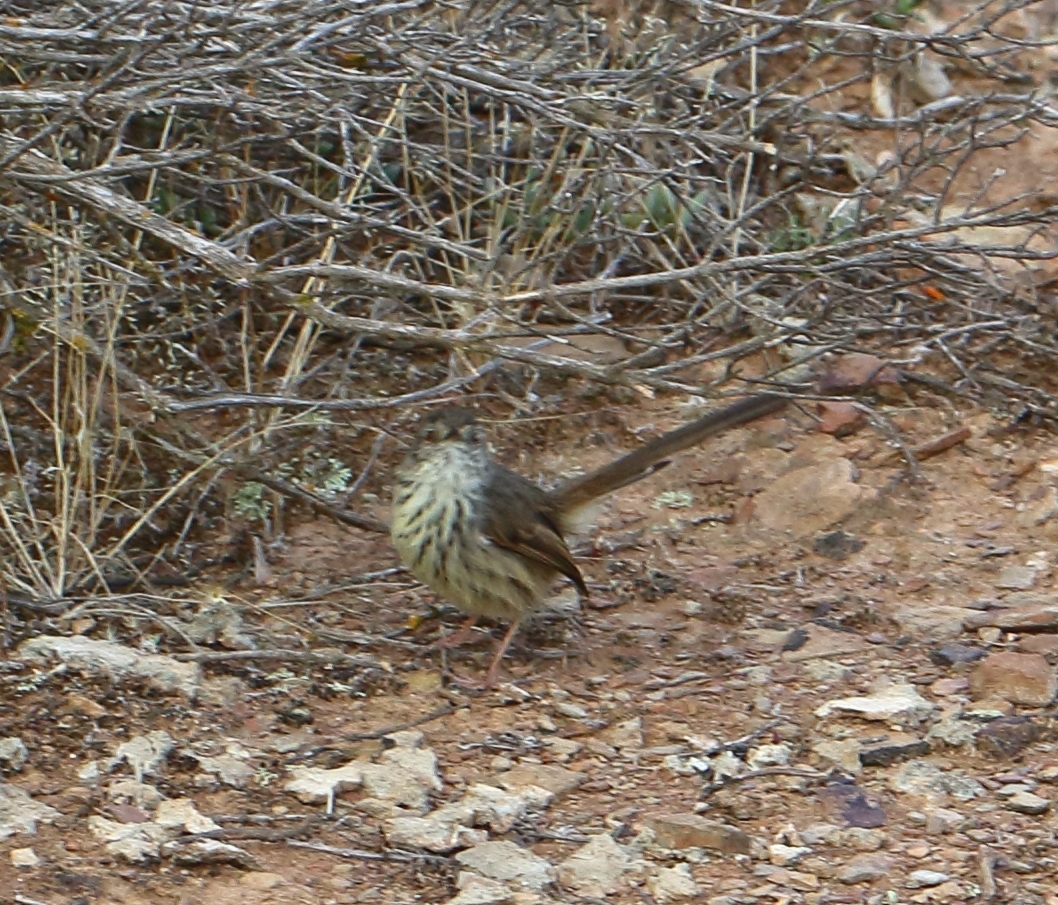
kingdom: Animalia
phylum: Chordata
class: Aves
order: Passeriformes
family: Cisticolidae
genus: Prinia
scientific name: Prinia maculosa
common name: Karoo prinia
